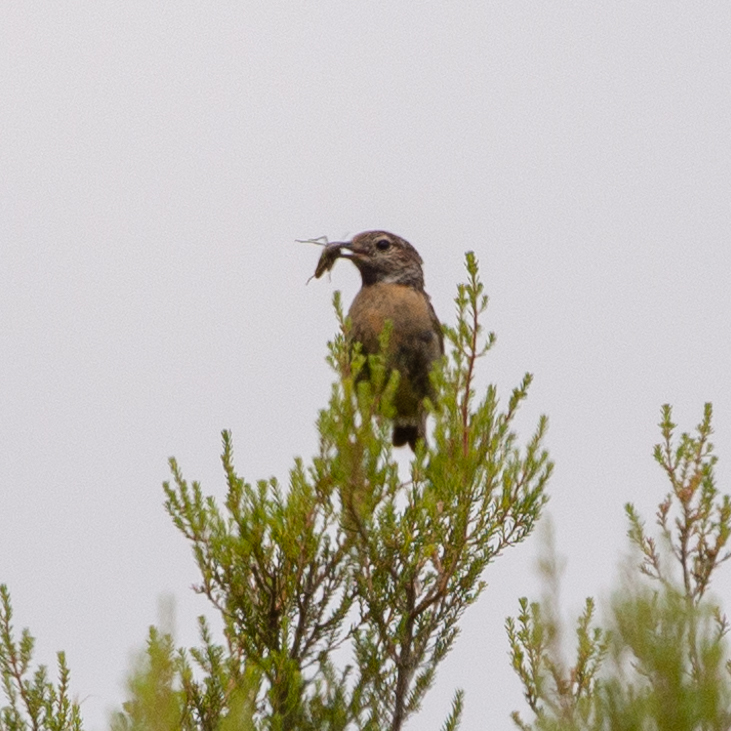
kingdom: Animalia
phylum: Chordata
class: Aves
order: Passeriformes
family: Muscicapidae
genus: Saxicola
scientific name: Saxicola rubicola
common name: European stonechat
